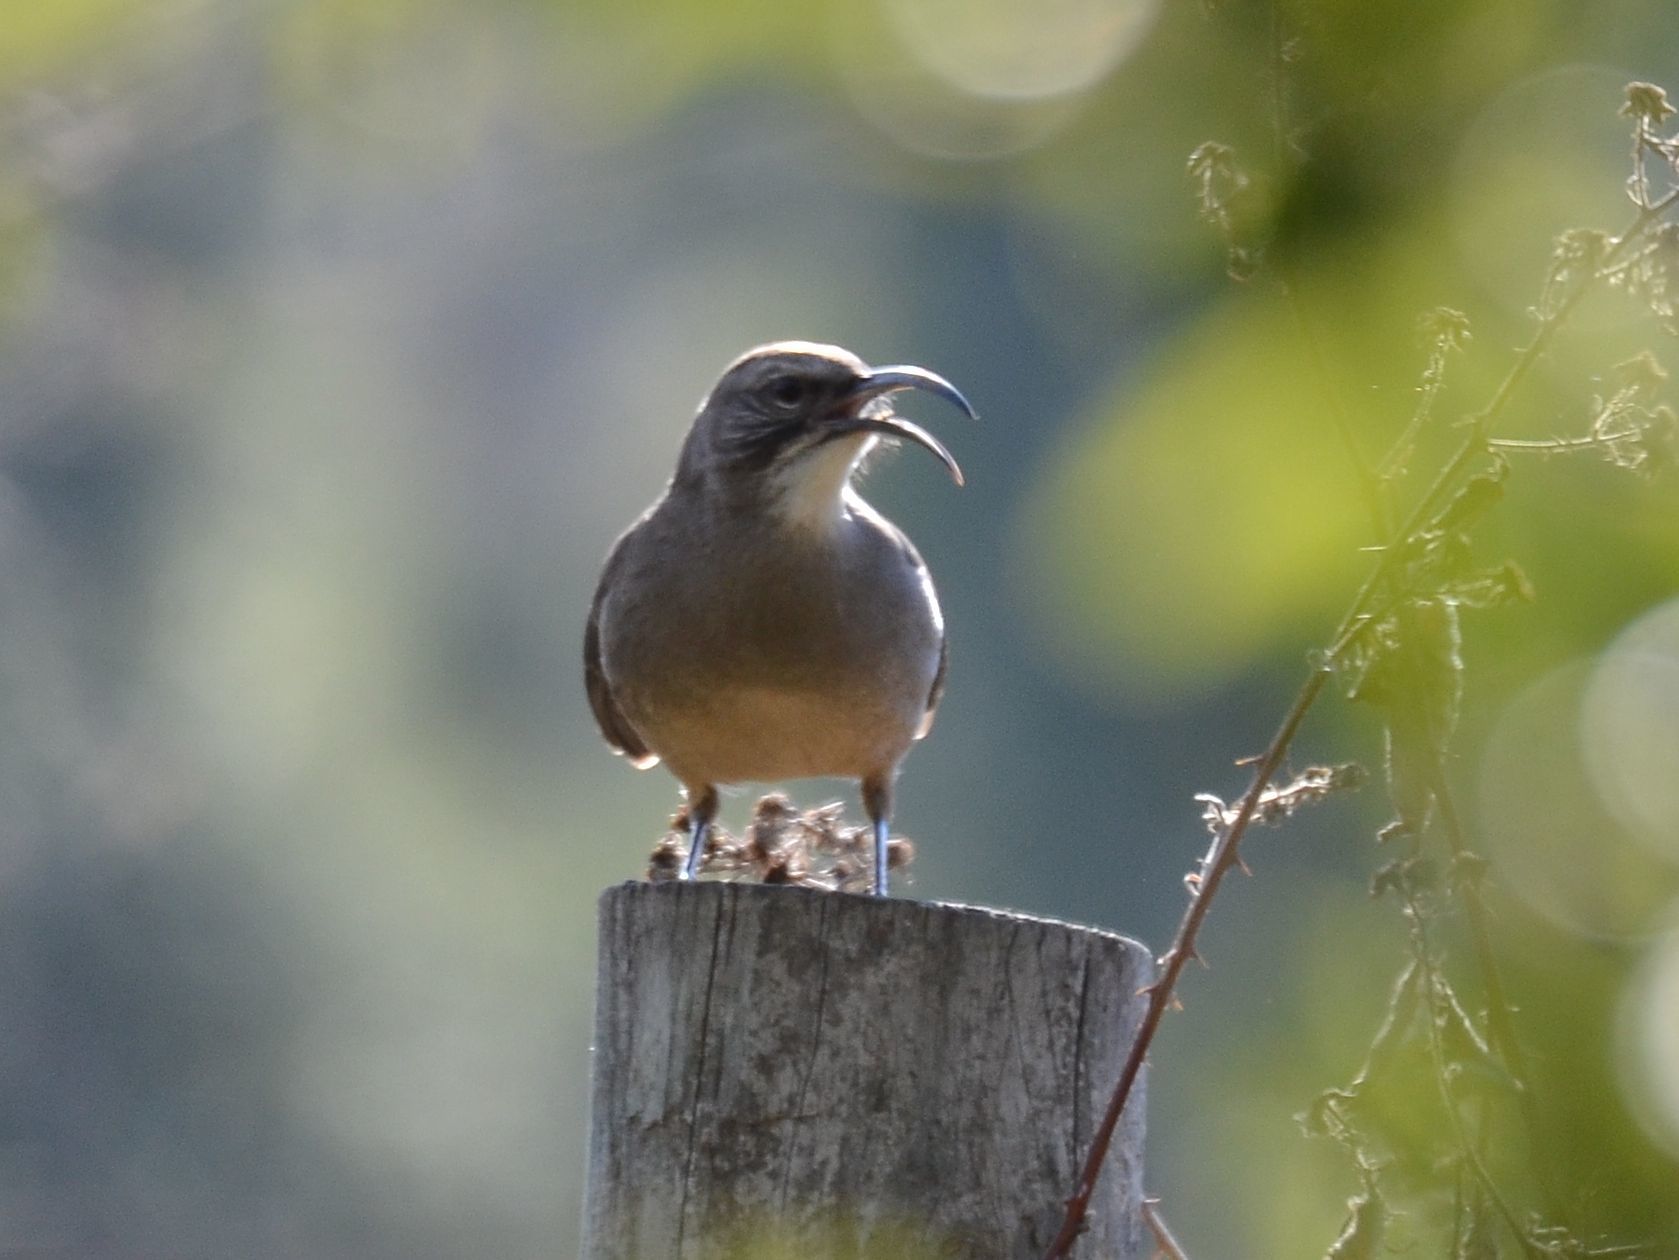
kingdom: Animalia
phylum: Chordata
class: Aves
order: Passeriformes
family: Mimidae
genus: Toxostoma
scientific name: Toxostoma redivivum
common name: California thrasher
